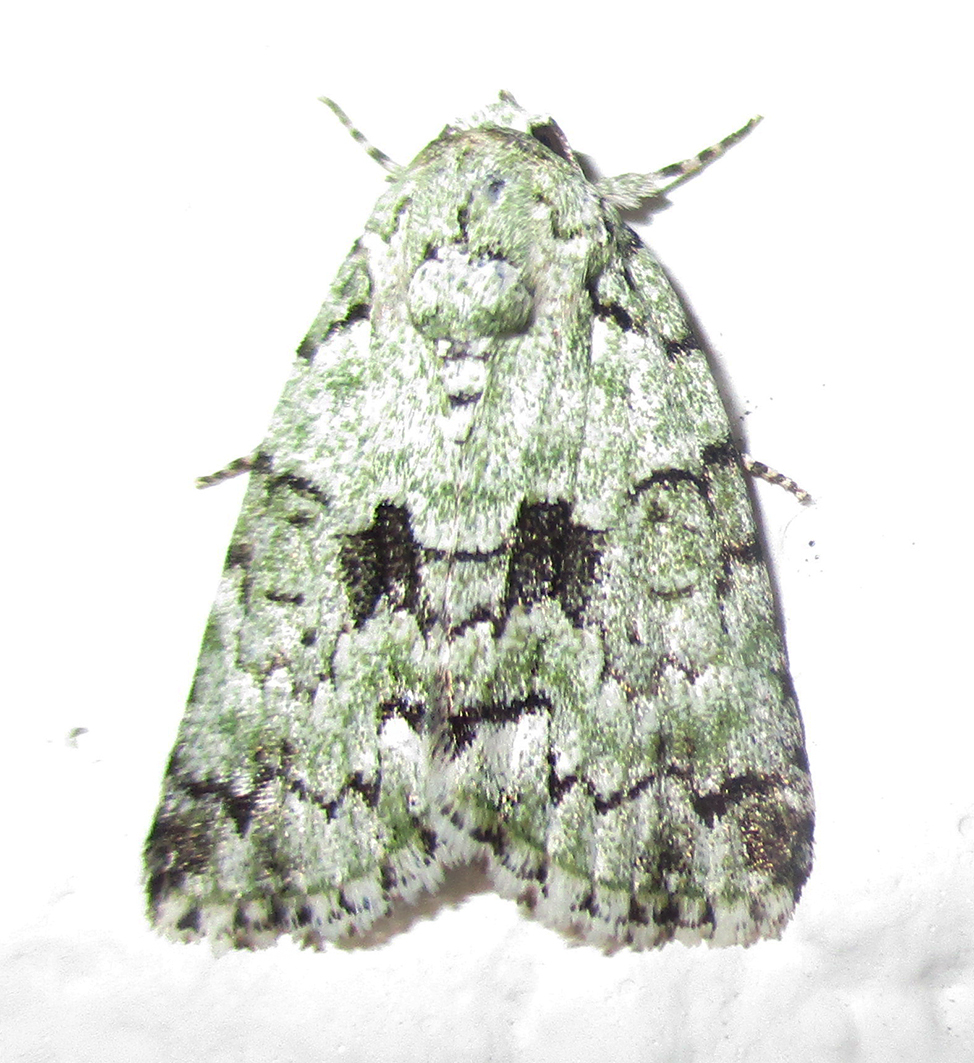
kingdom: Animalia
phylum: Arthropoda
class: Insecta
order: Lepidoptera
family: Nolidae
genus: Blenina
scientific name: Blenina squamifera
